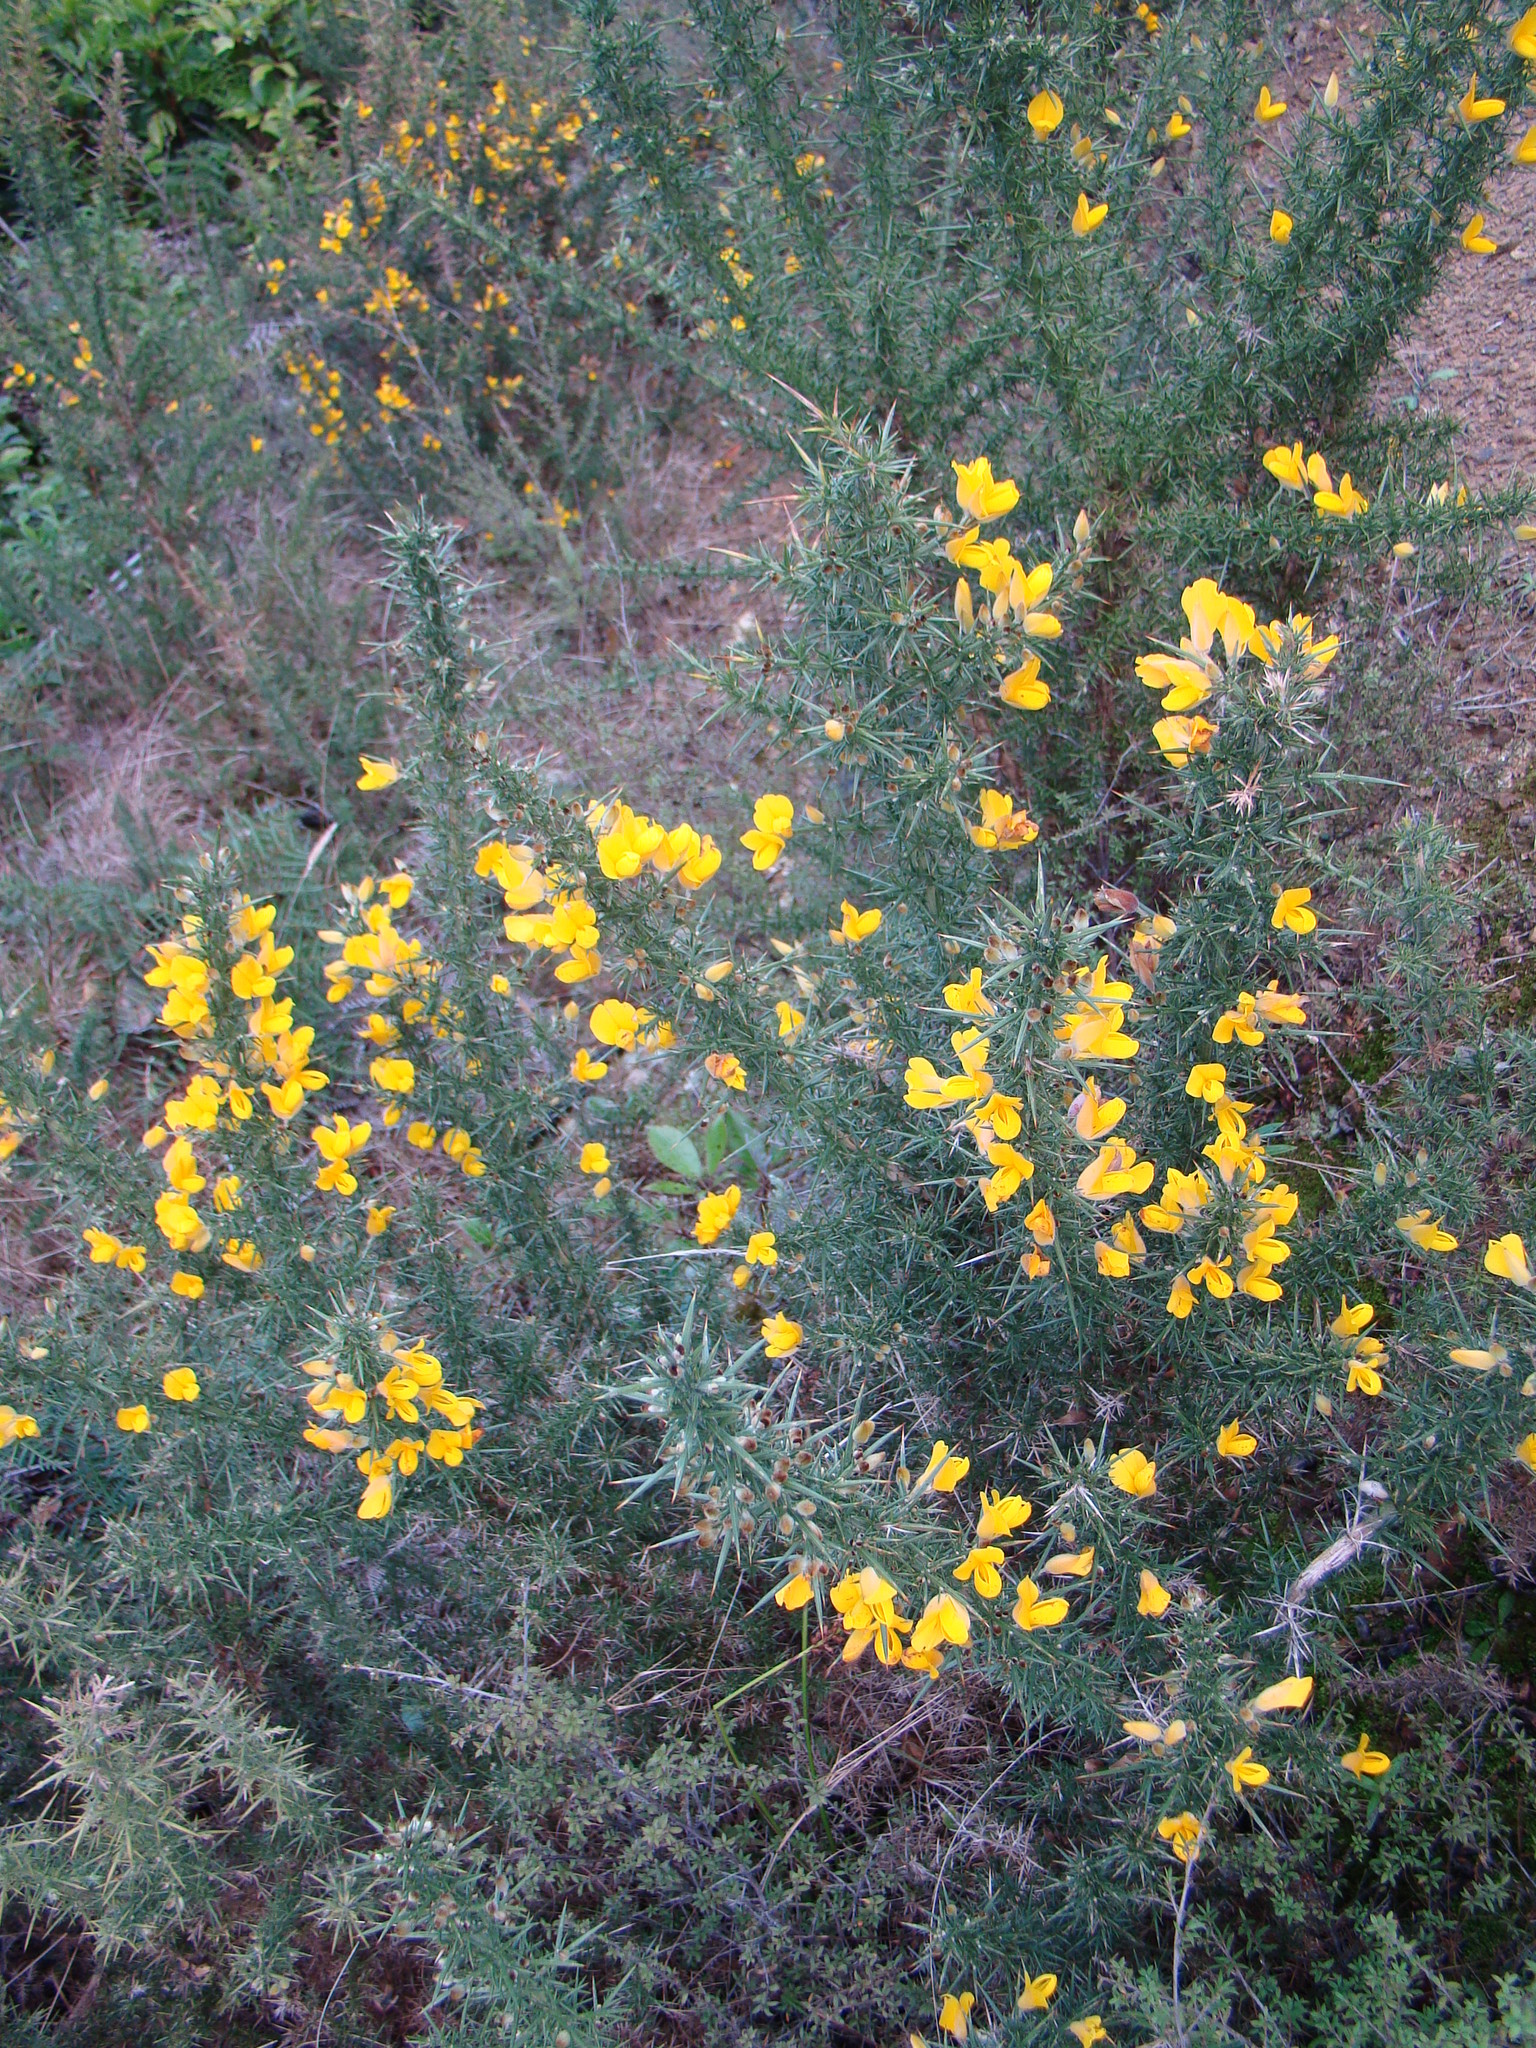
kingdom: Plantae
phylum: Tracheophyta
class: Magnoliopsida
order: Fabales
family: Fabaceae
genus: Ulex
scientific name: Ulex europaeus
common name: Common gorse
